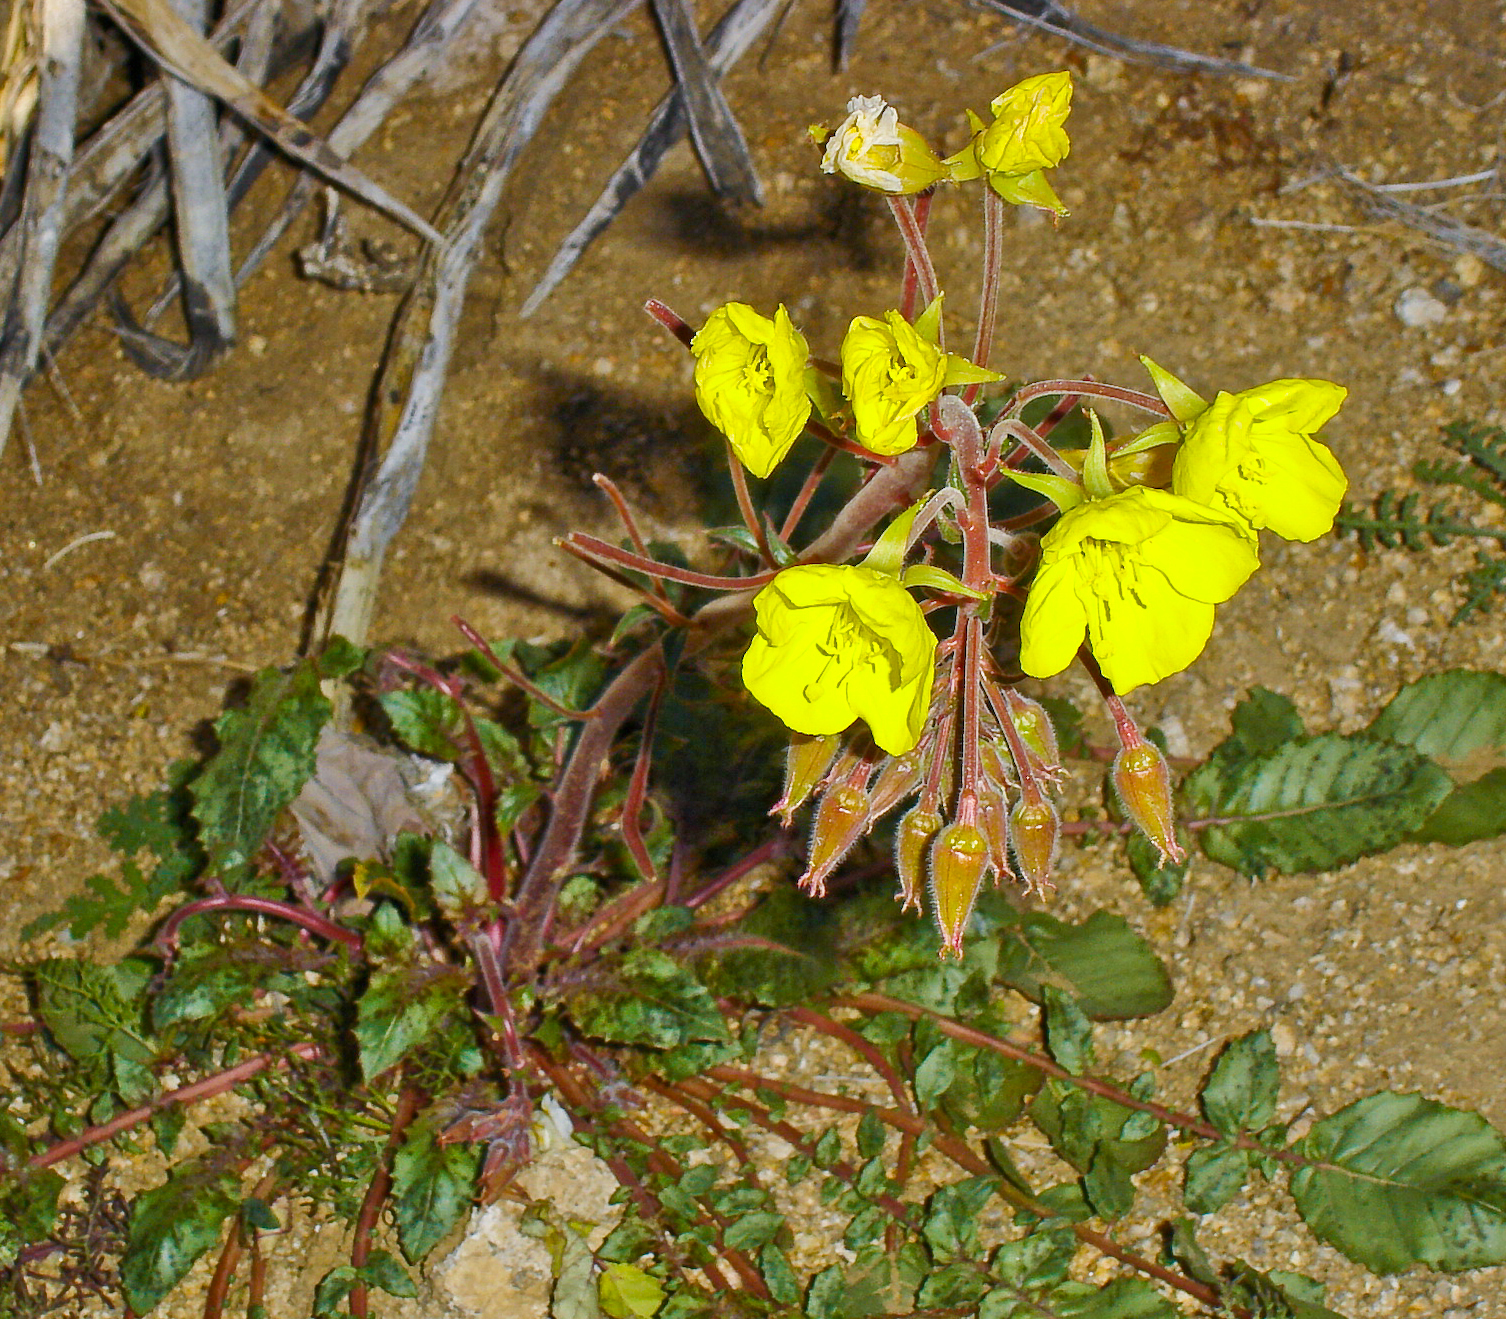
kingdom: Plantae
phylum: Tracheophyta
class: Magnoliopsida
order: Myrtales
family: Onagraceae
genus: Chylismia
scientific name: Chylismia brevipes
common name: Yellow cups
